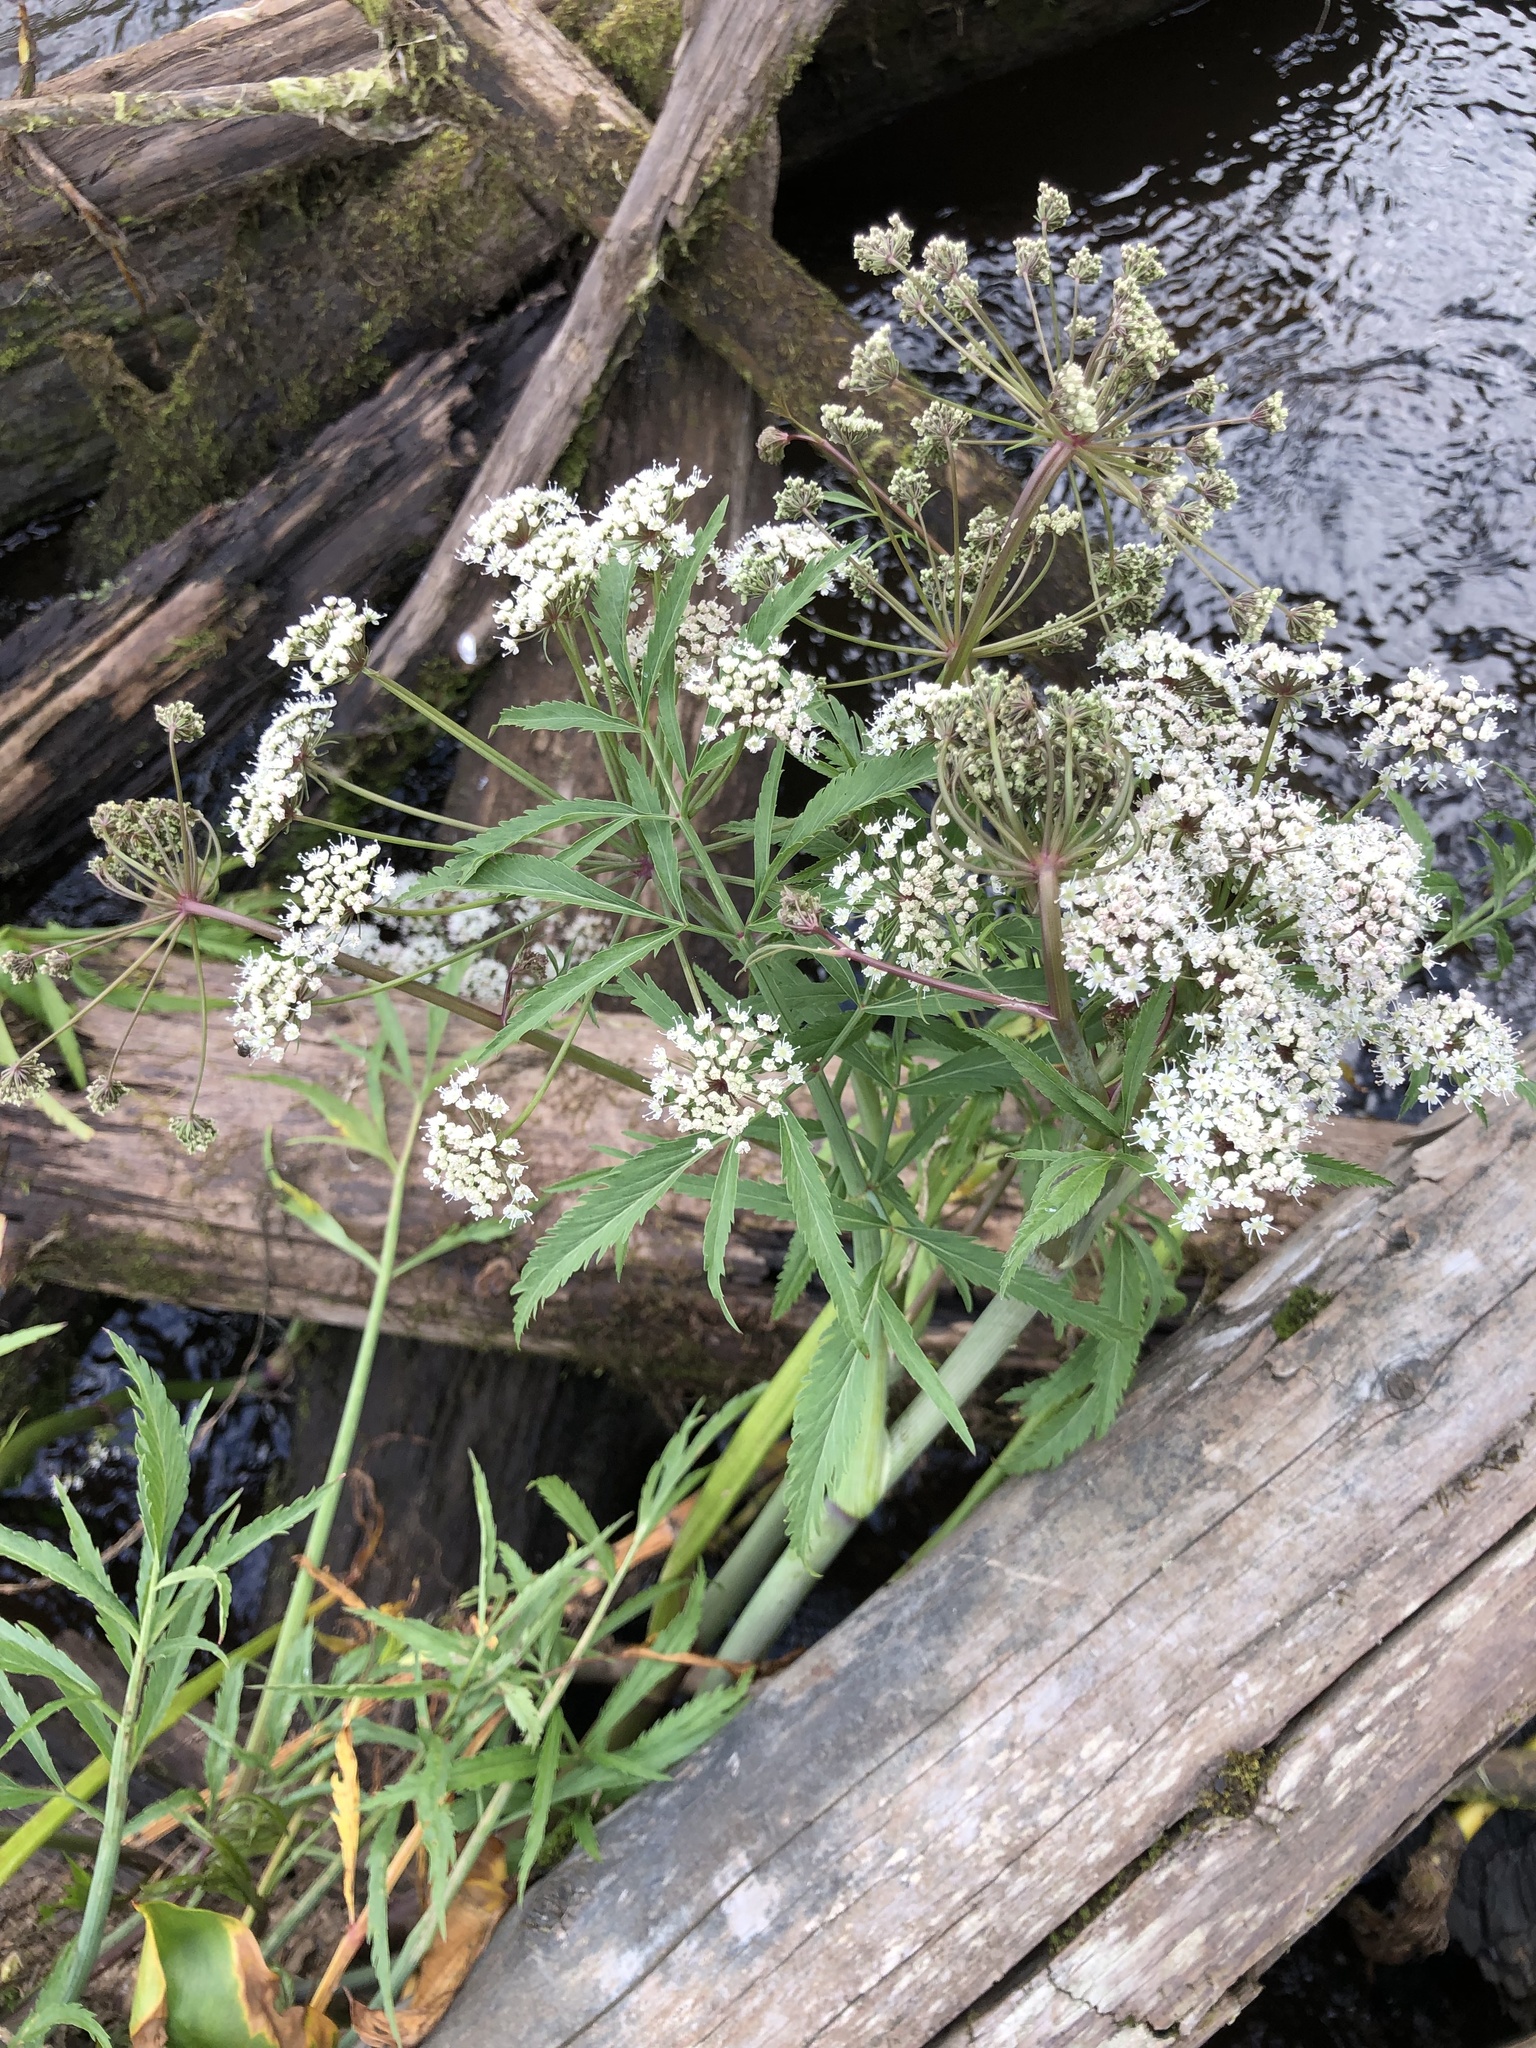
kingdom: Plantae
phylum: Tracheophyta
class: Magnoliopsida
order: Apiales
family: Apiaceae
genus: Cicuta
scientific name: Cicuta virosa
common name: Cowbane
